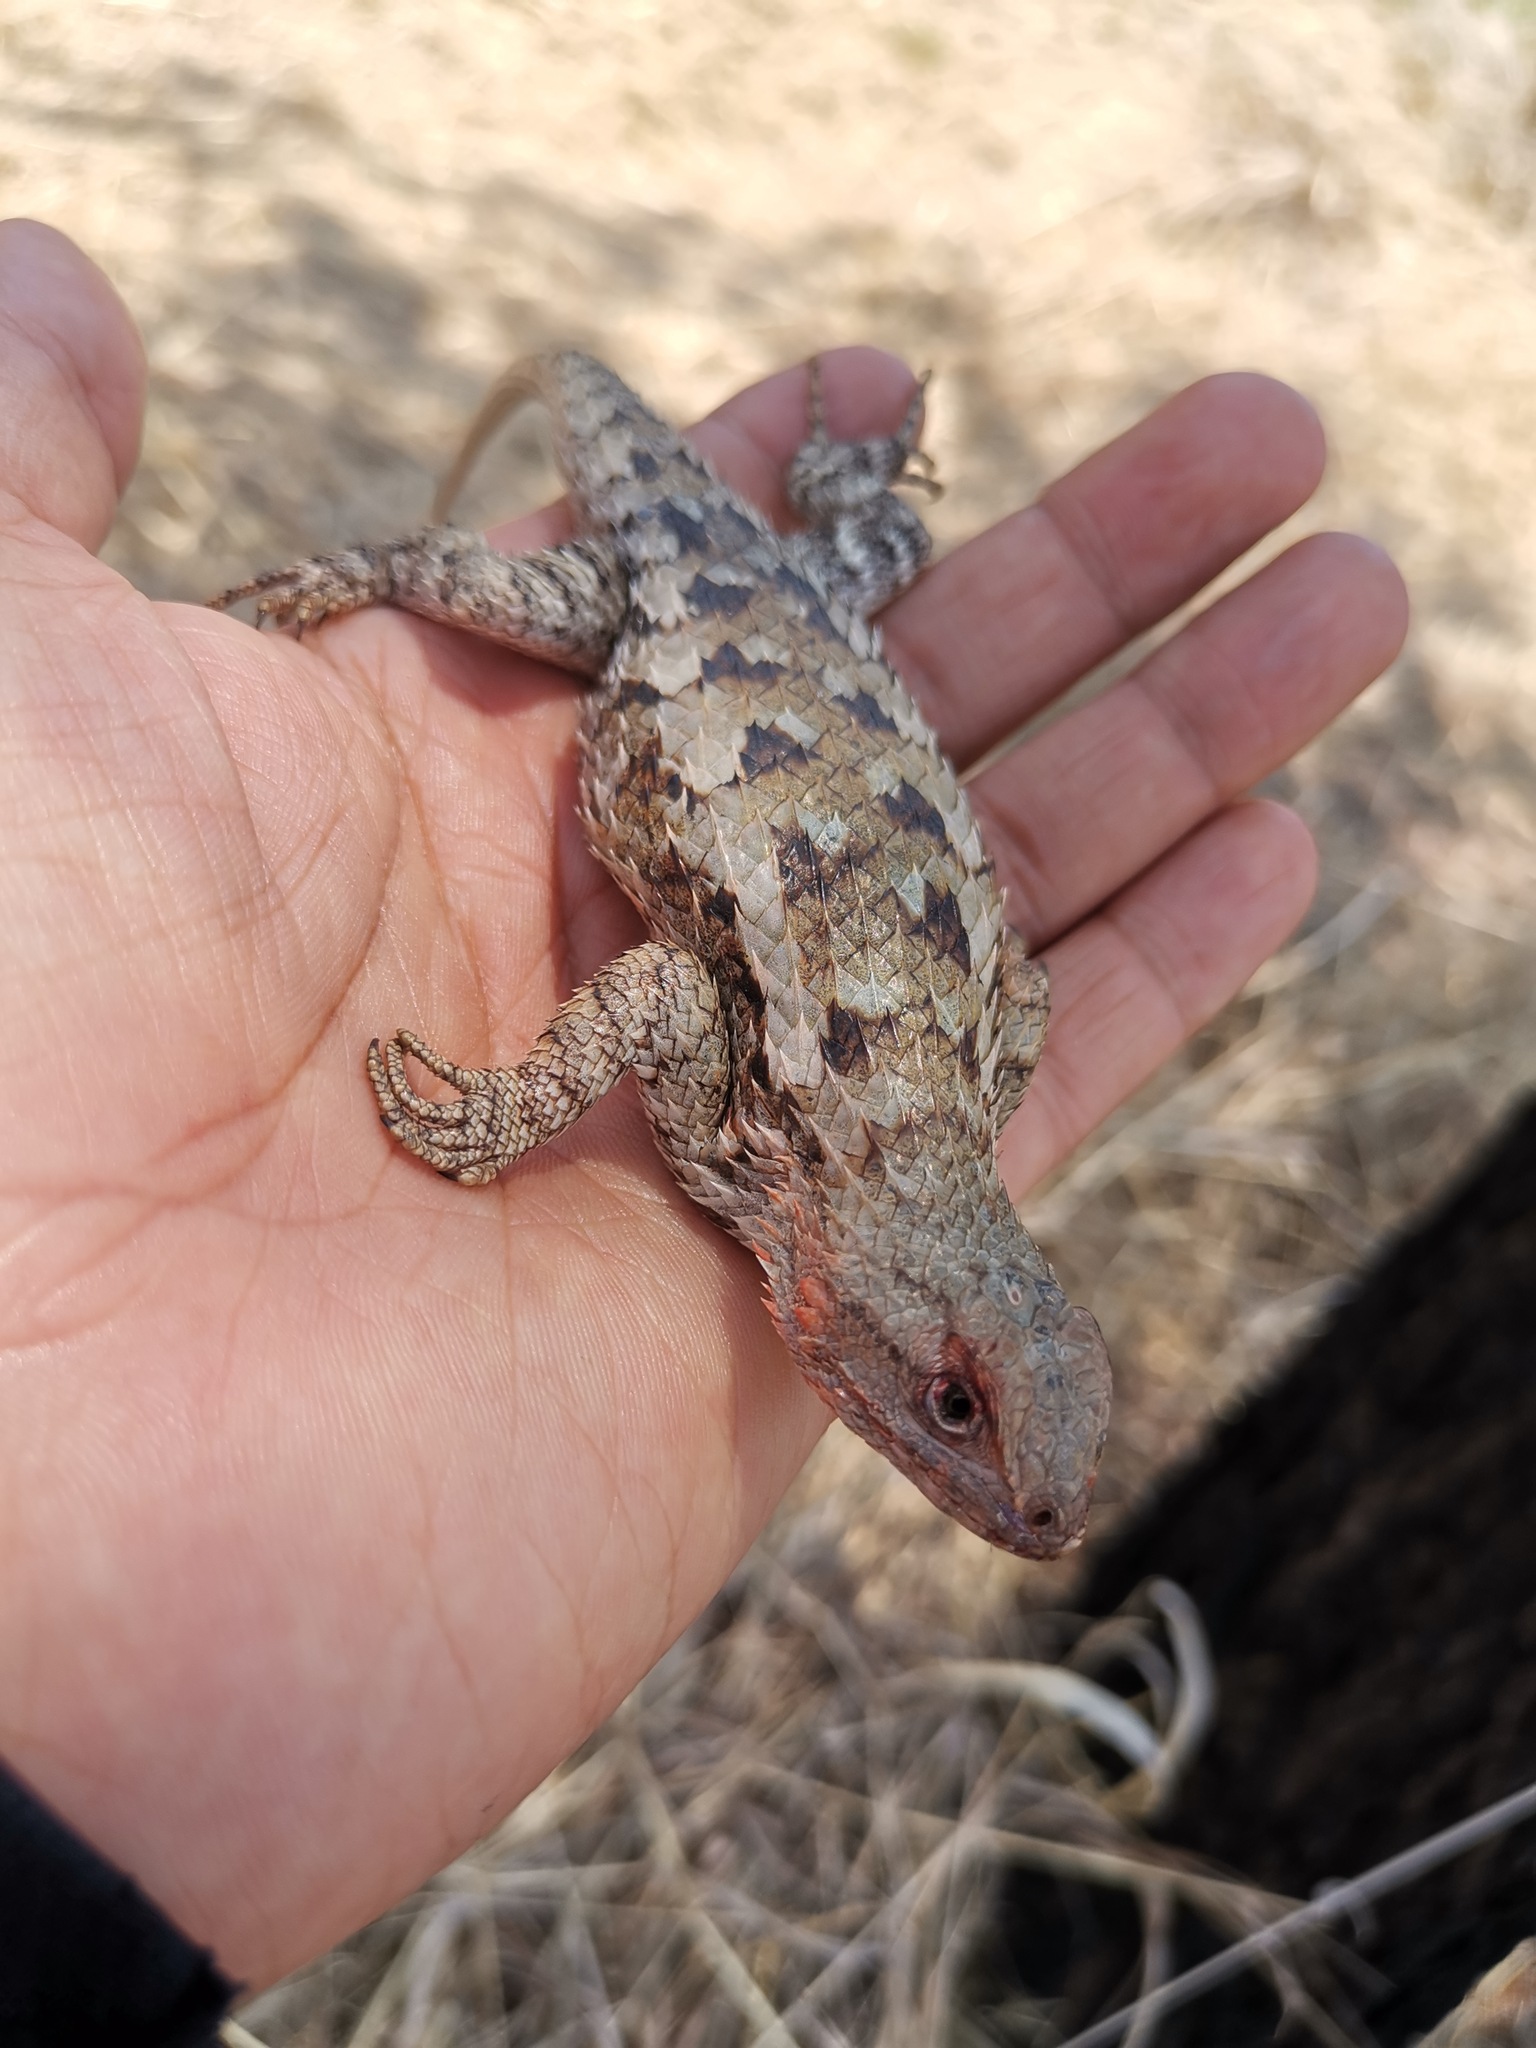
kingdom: Animalia
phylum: Chordata
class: Squamata
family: Phrynosomatidae
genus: Sceloporus
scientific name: Sceloporus spinosus
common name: Blue-spotted spiny lizard [caeruleopunctatus]
